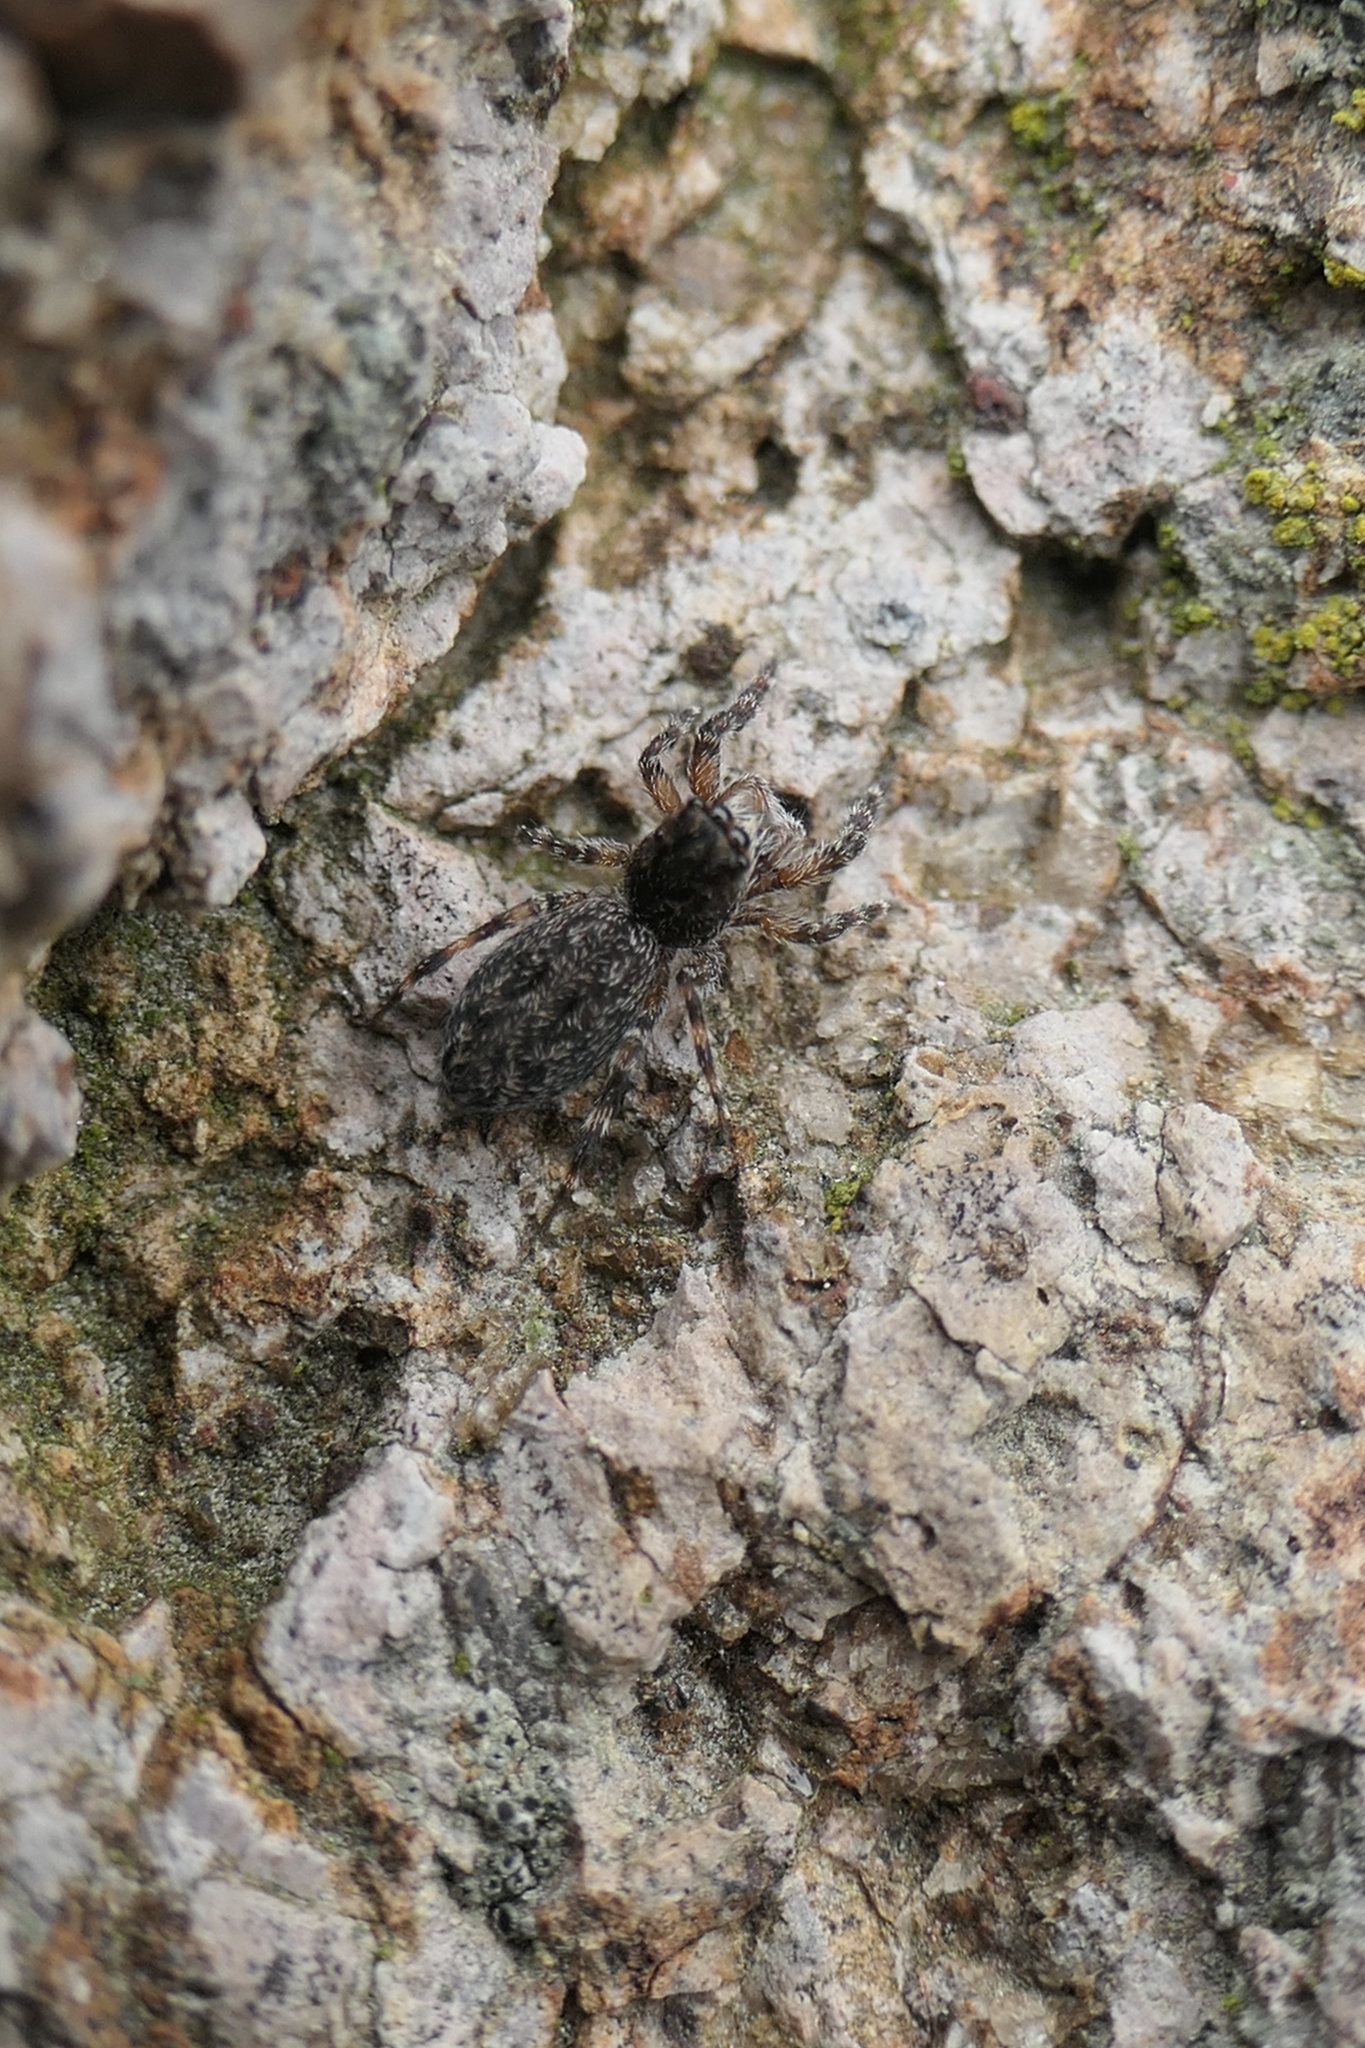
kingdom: Animalia
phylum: Arthropoda
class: Arachnida
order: Araneae
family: Salticidae
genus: Adoxotoma
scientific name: Adoxotoma forsteri
